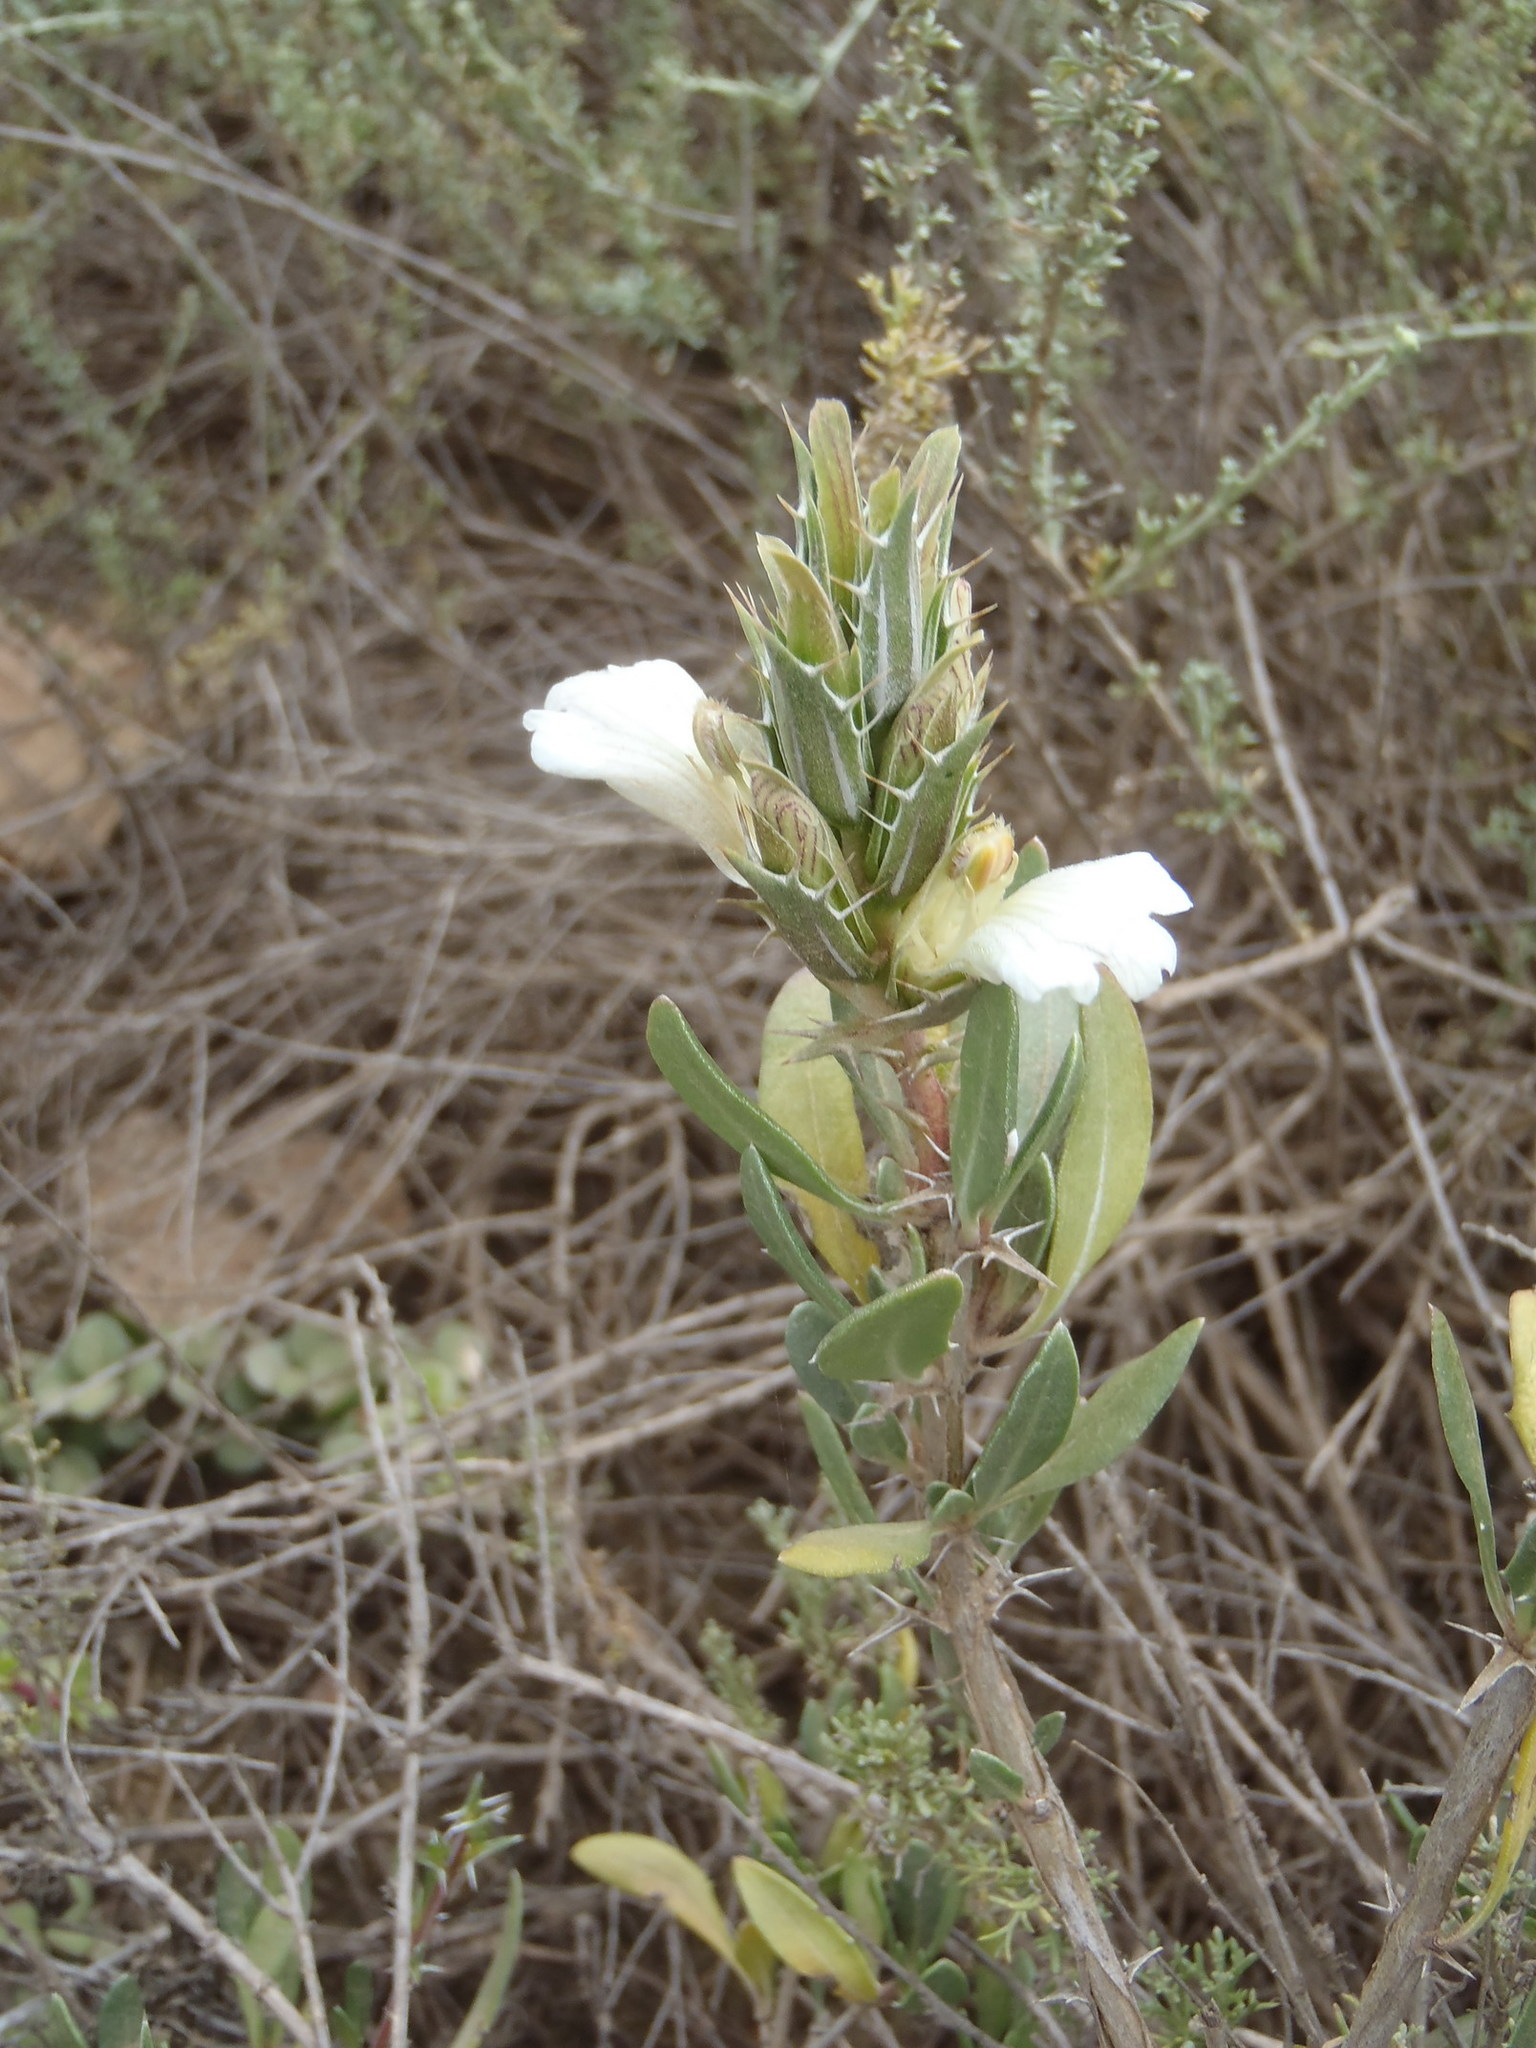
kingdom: Plantae
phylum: Tracheophyta
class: Magnoliopsida
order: Lamiales
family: Acanthaceae
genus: Blepharis
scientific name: Blepharis capensis
